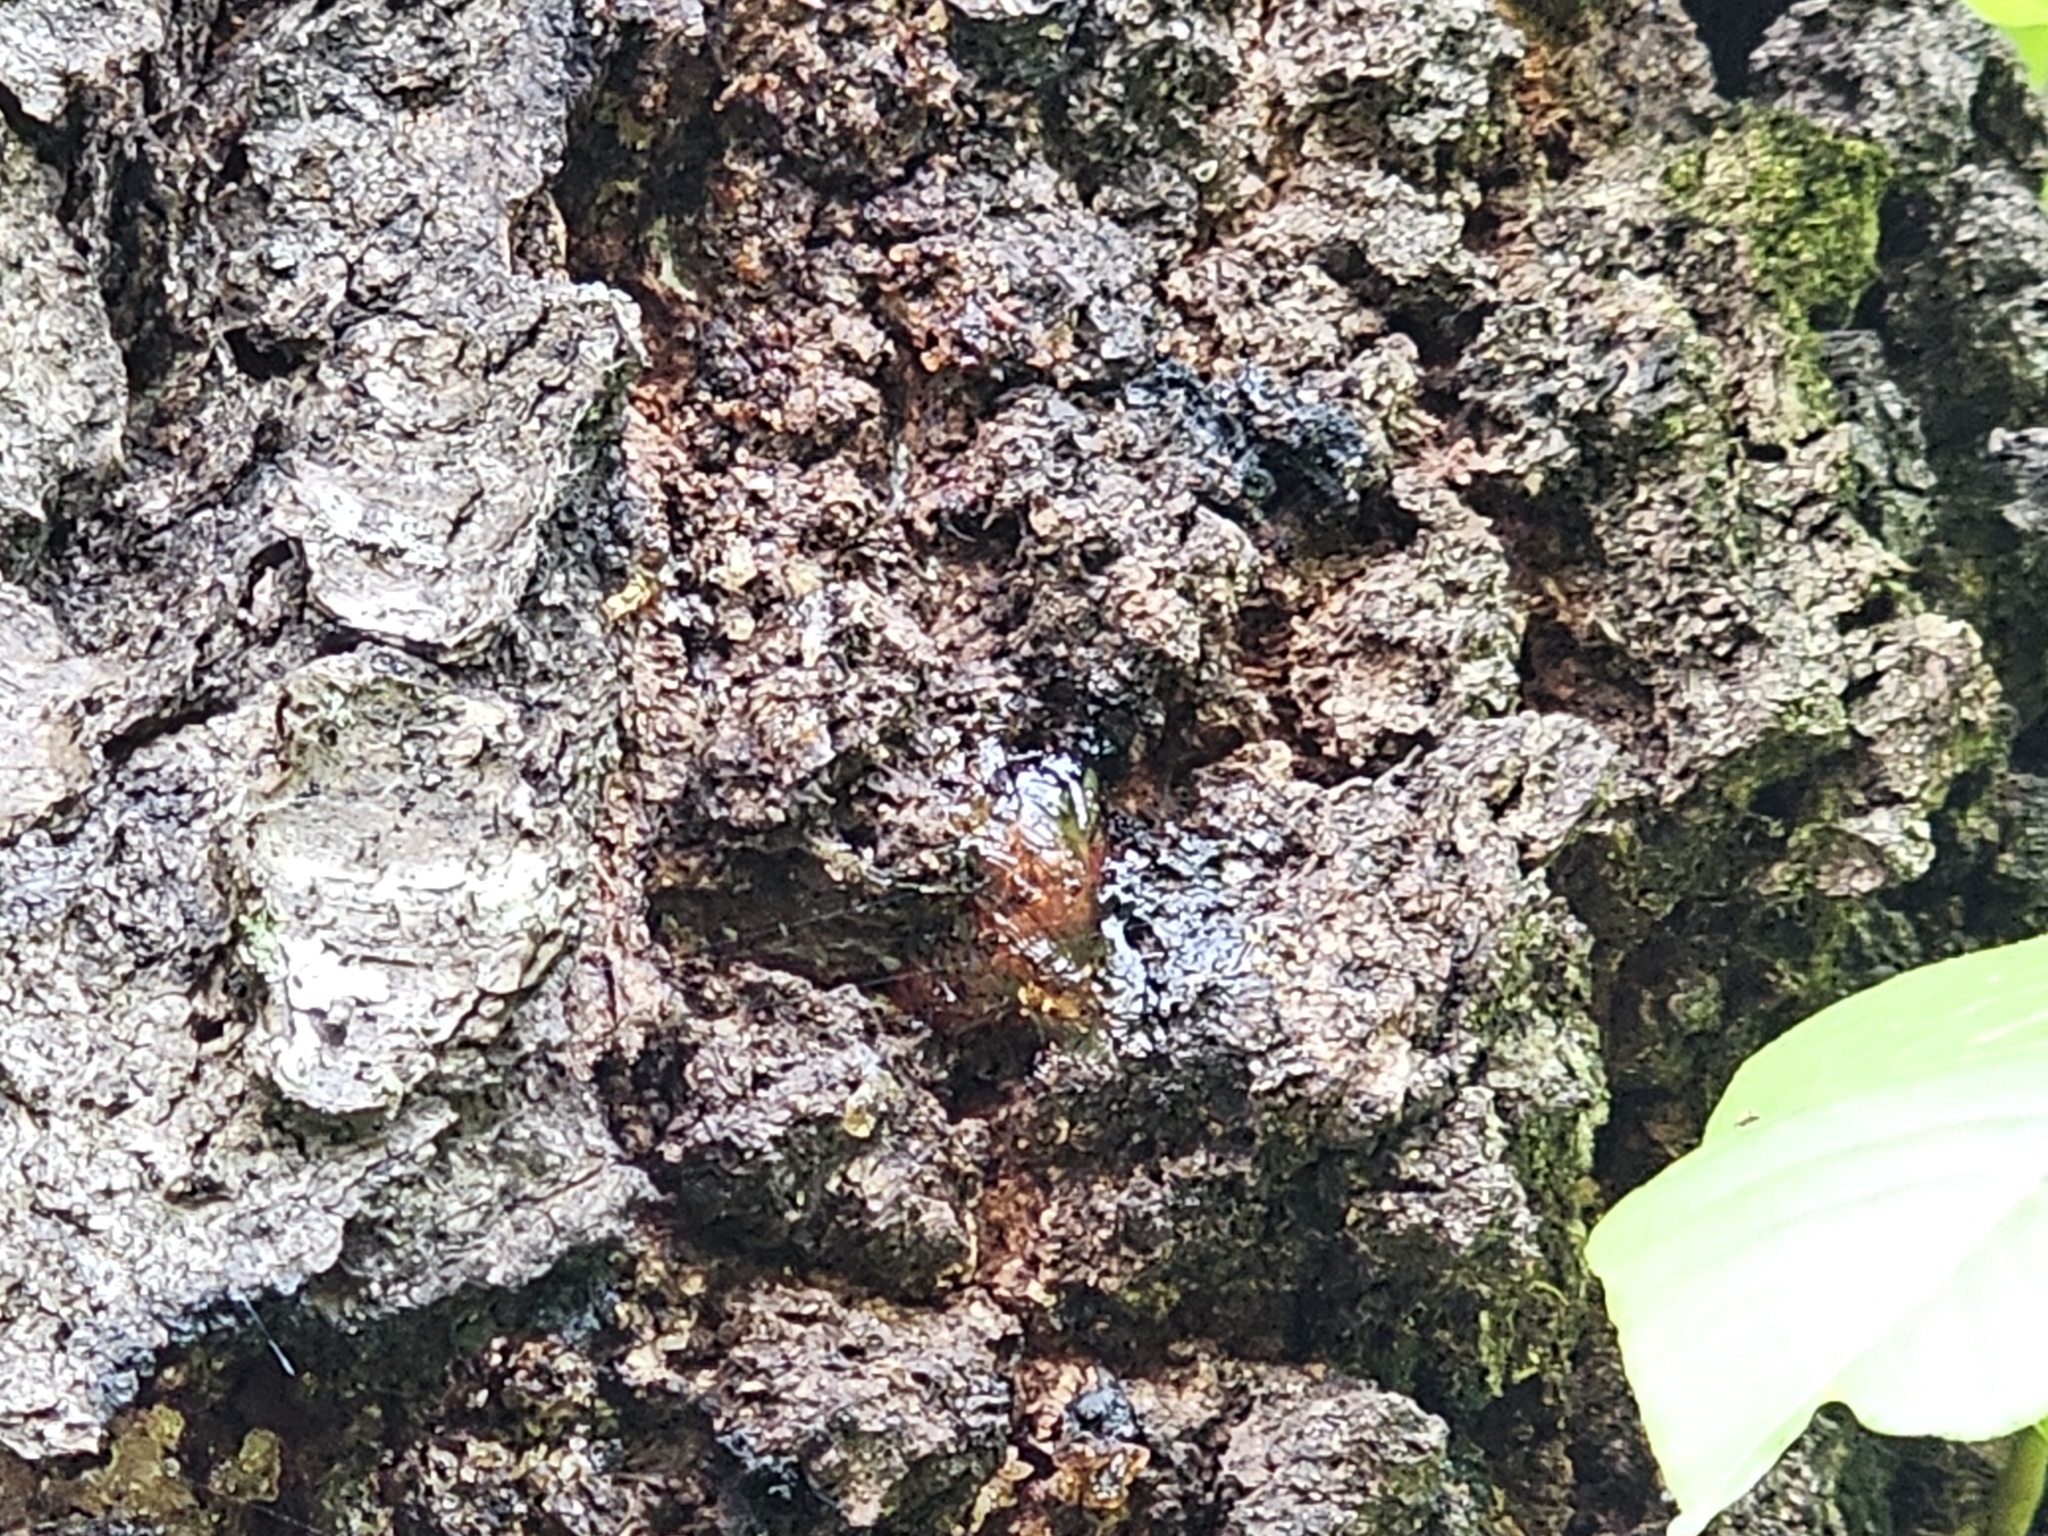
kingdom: Fungi
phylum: Ascomycota
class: Dothideomycetes
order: Venturiales
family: Venturiaceae
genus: Apiosporina
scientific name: Apiosporina morbosa
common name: Black knot
